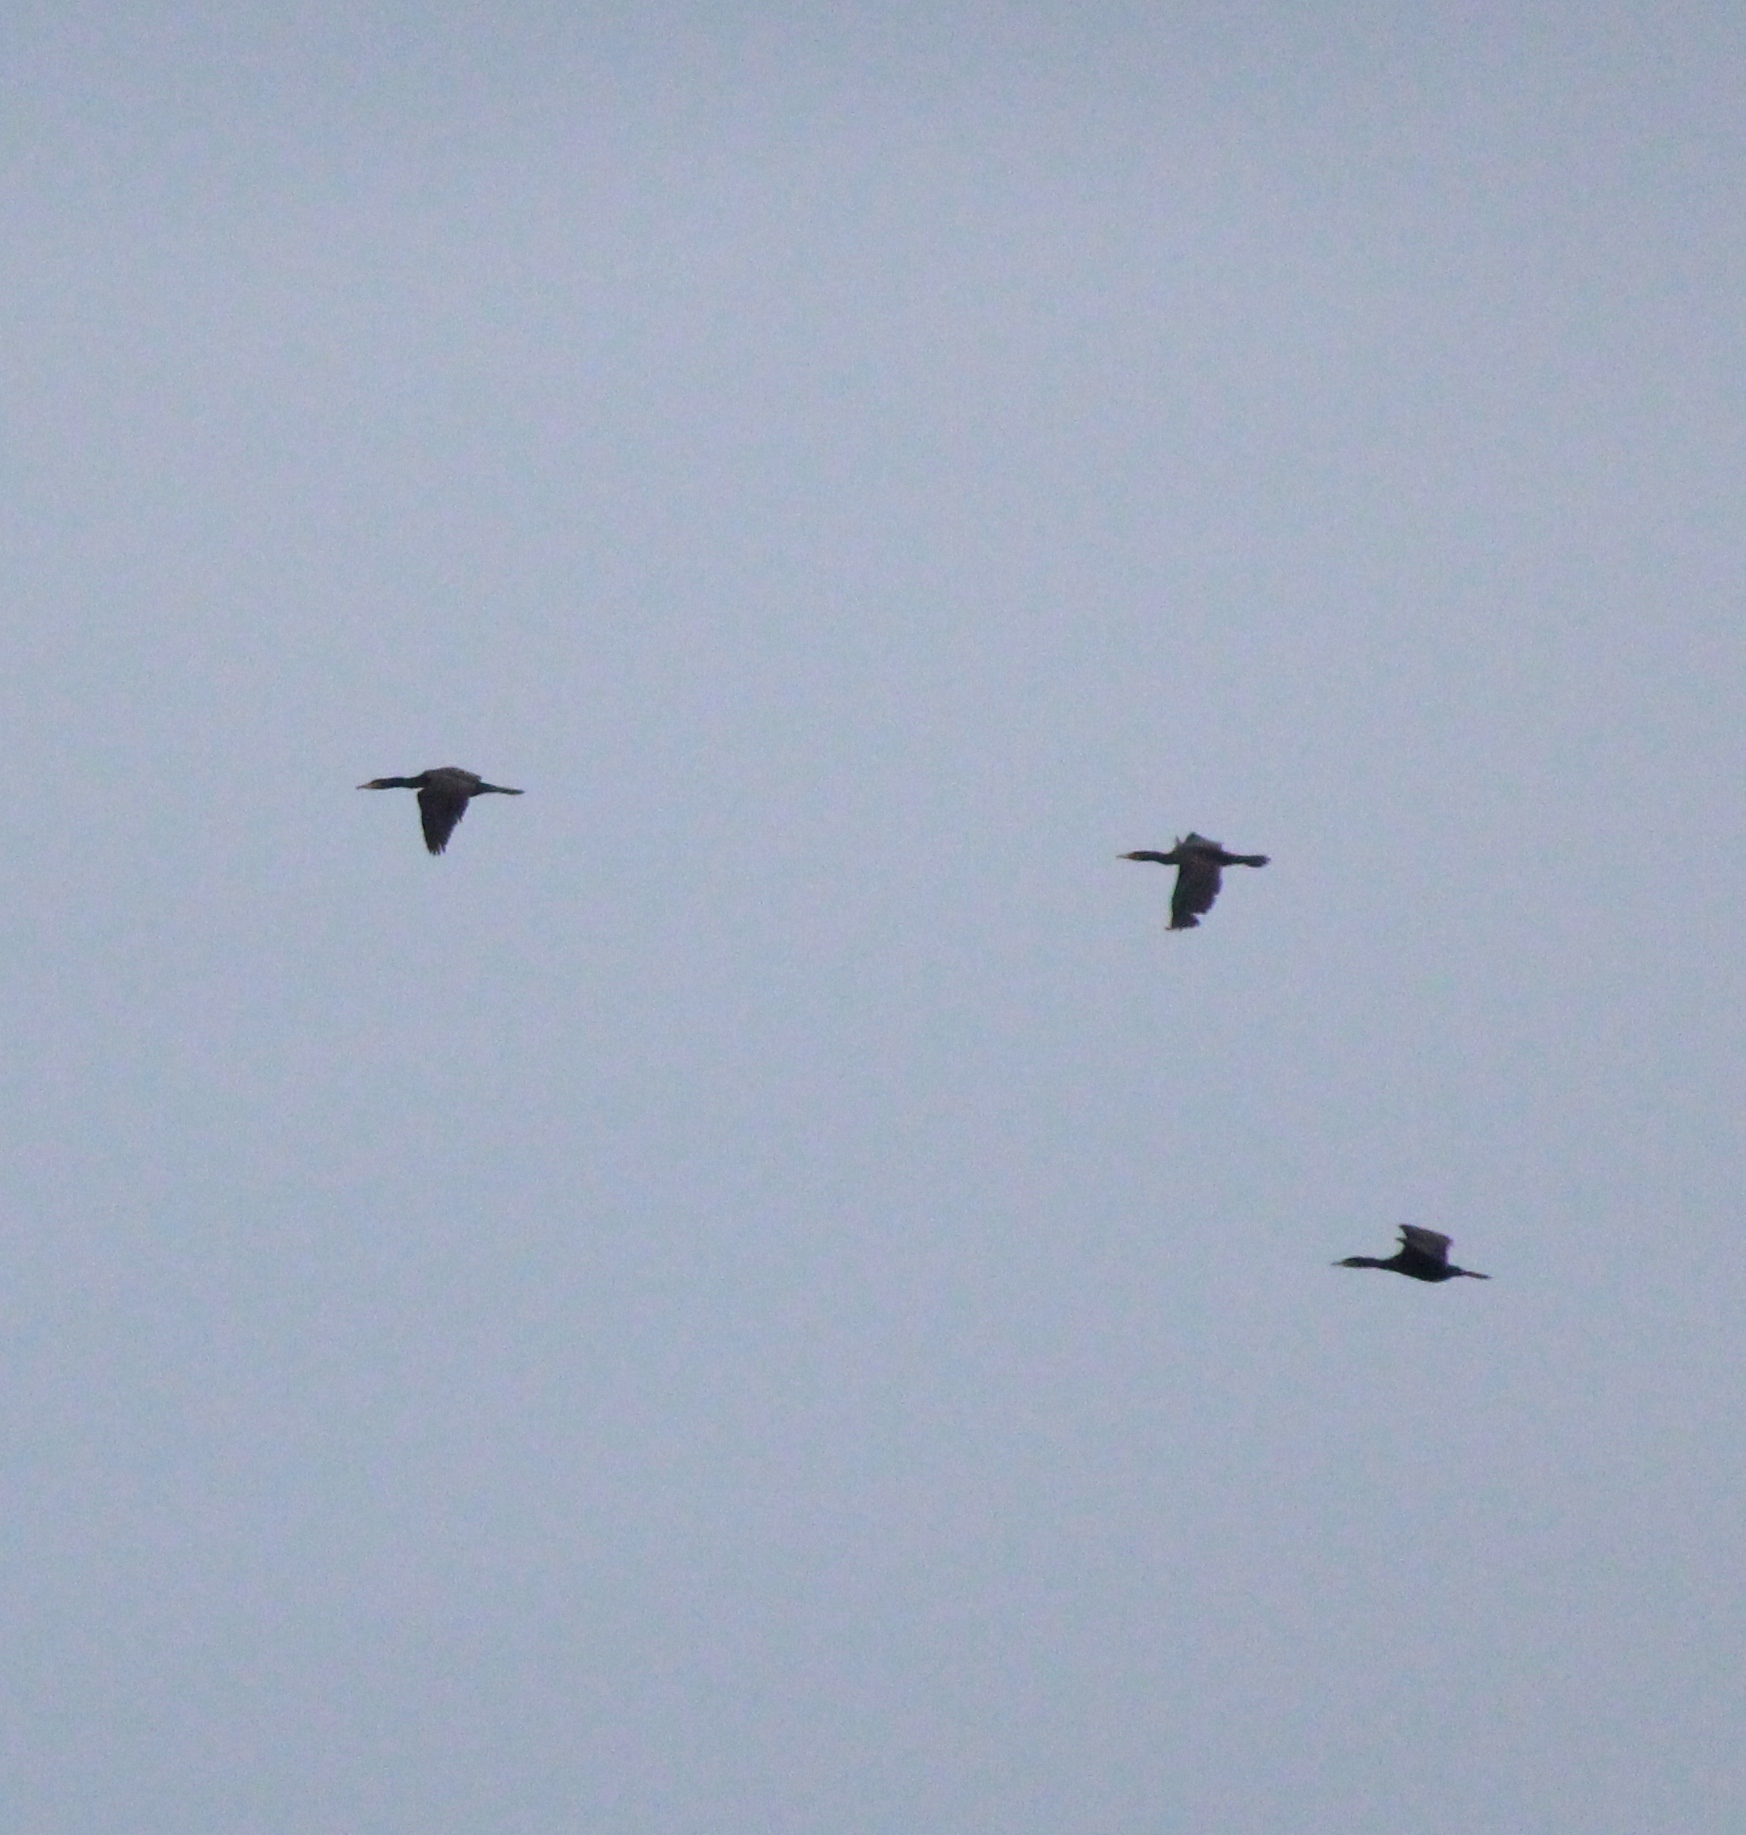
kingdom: Animalia
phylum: Chordata
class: Aves
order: Suliformes
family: Phalacrocoracidae
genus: Phalacrocorax
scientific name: Phalacrocorax carbo
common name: Great cormorant
